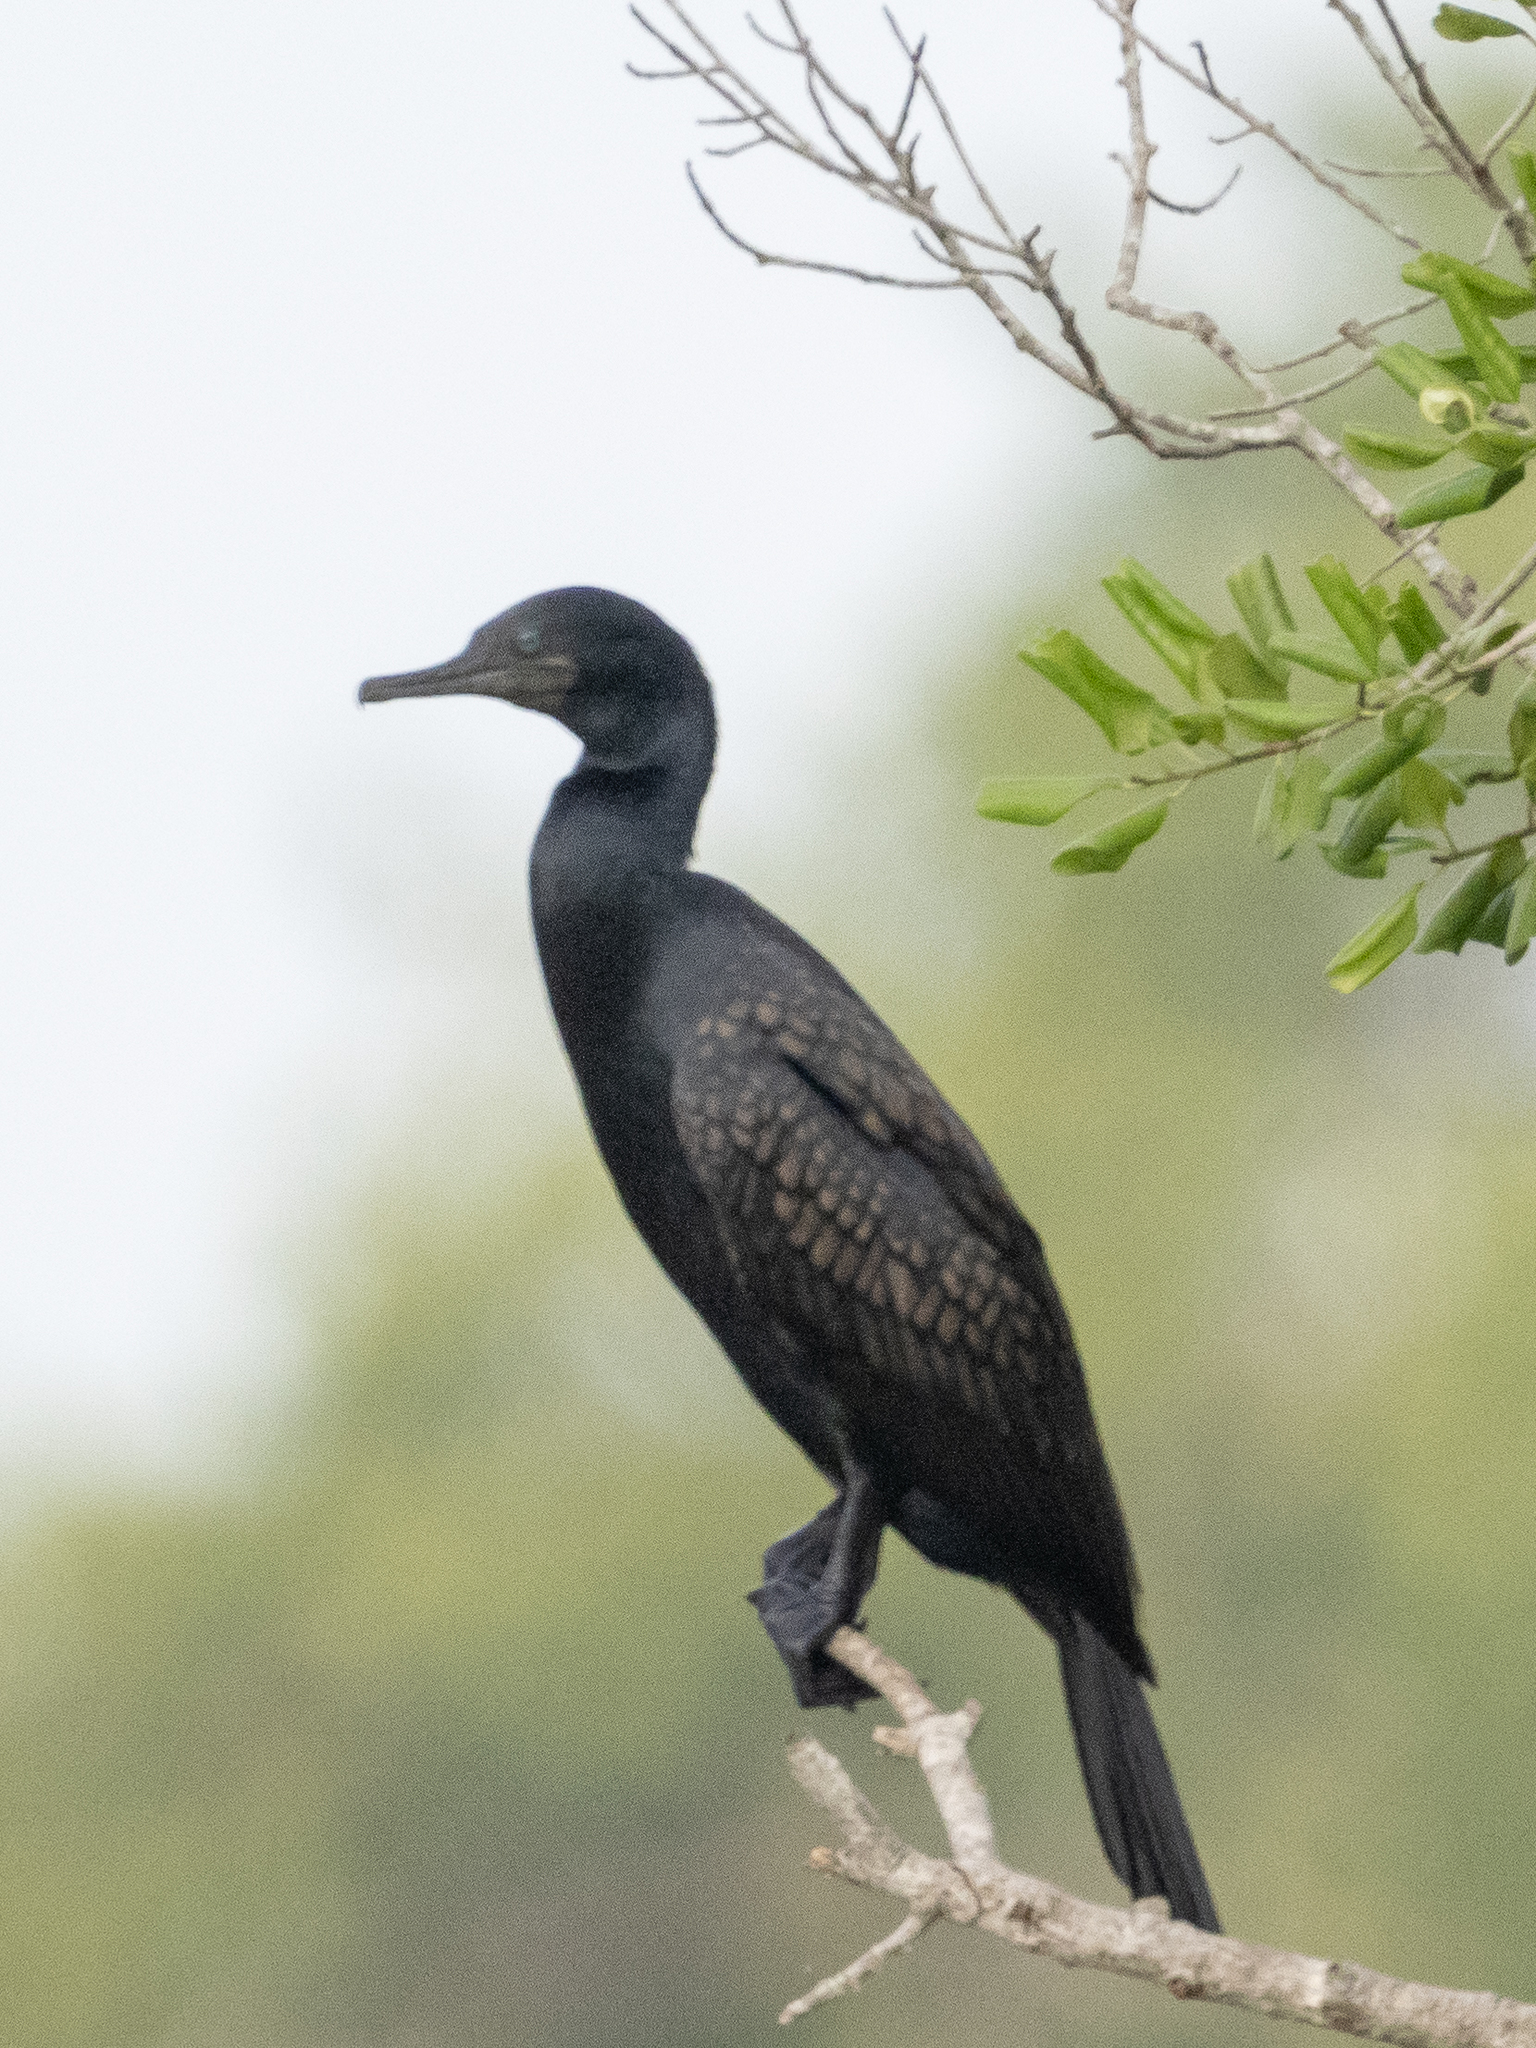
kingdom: Animalia
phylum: Chordata
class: Aves
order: Suliformes
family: Phalacrocoracidae
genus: Phalacrocorax
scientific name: Phalacrocorax fuscicollis
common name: Indian cormorant
